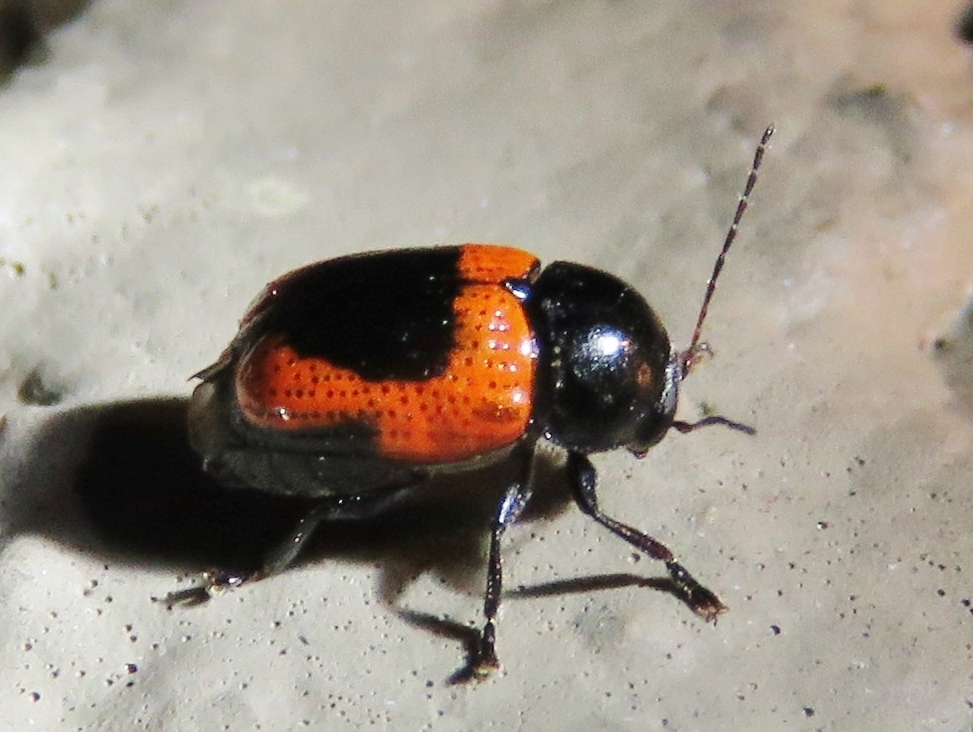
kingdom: Animalia
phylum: Arthropoda
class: Insecta
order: Coleoptera
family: Chrysomelidae
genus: Cryptocephalus
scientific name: Cryptocephalus notatus
